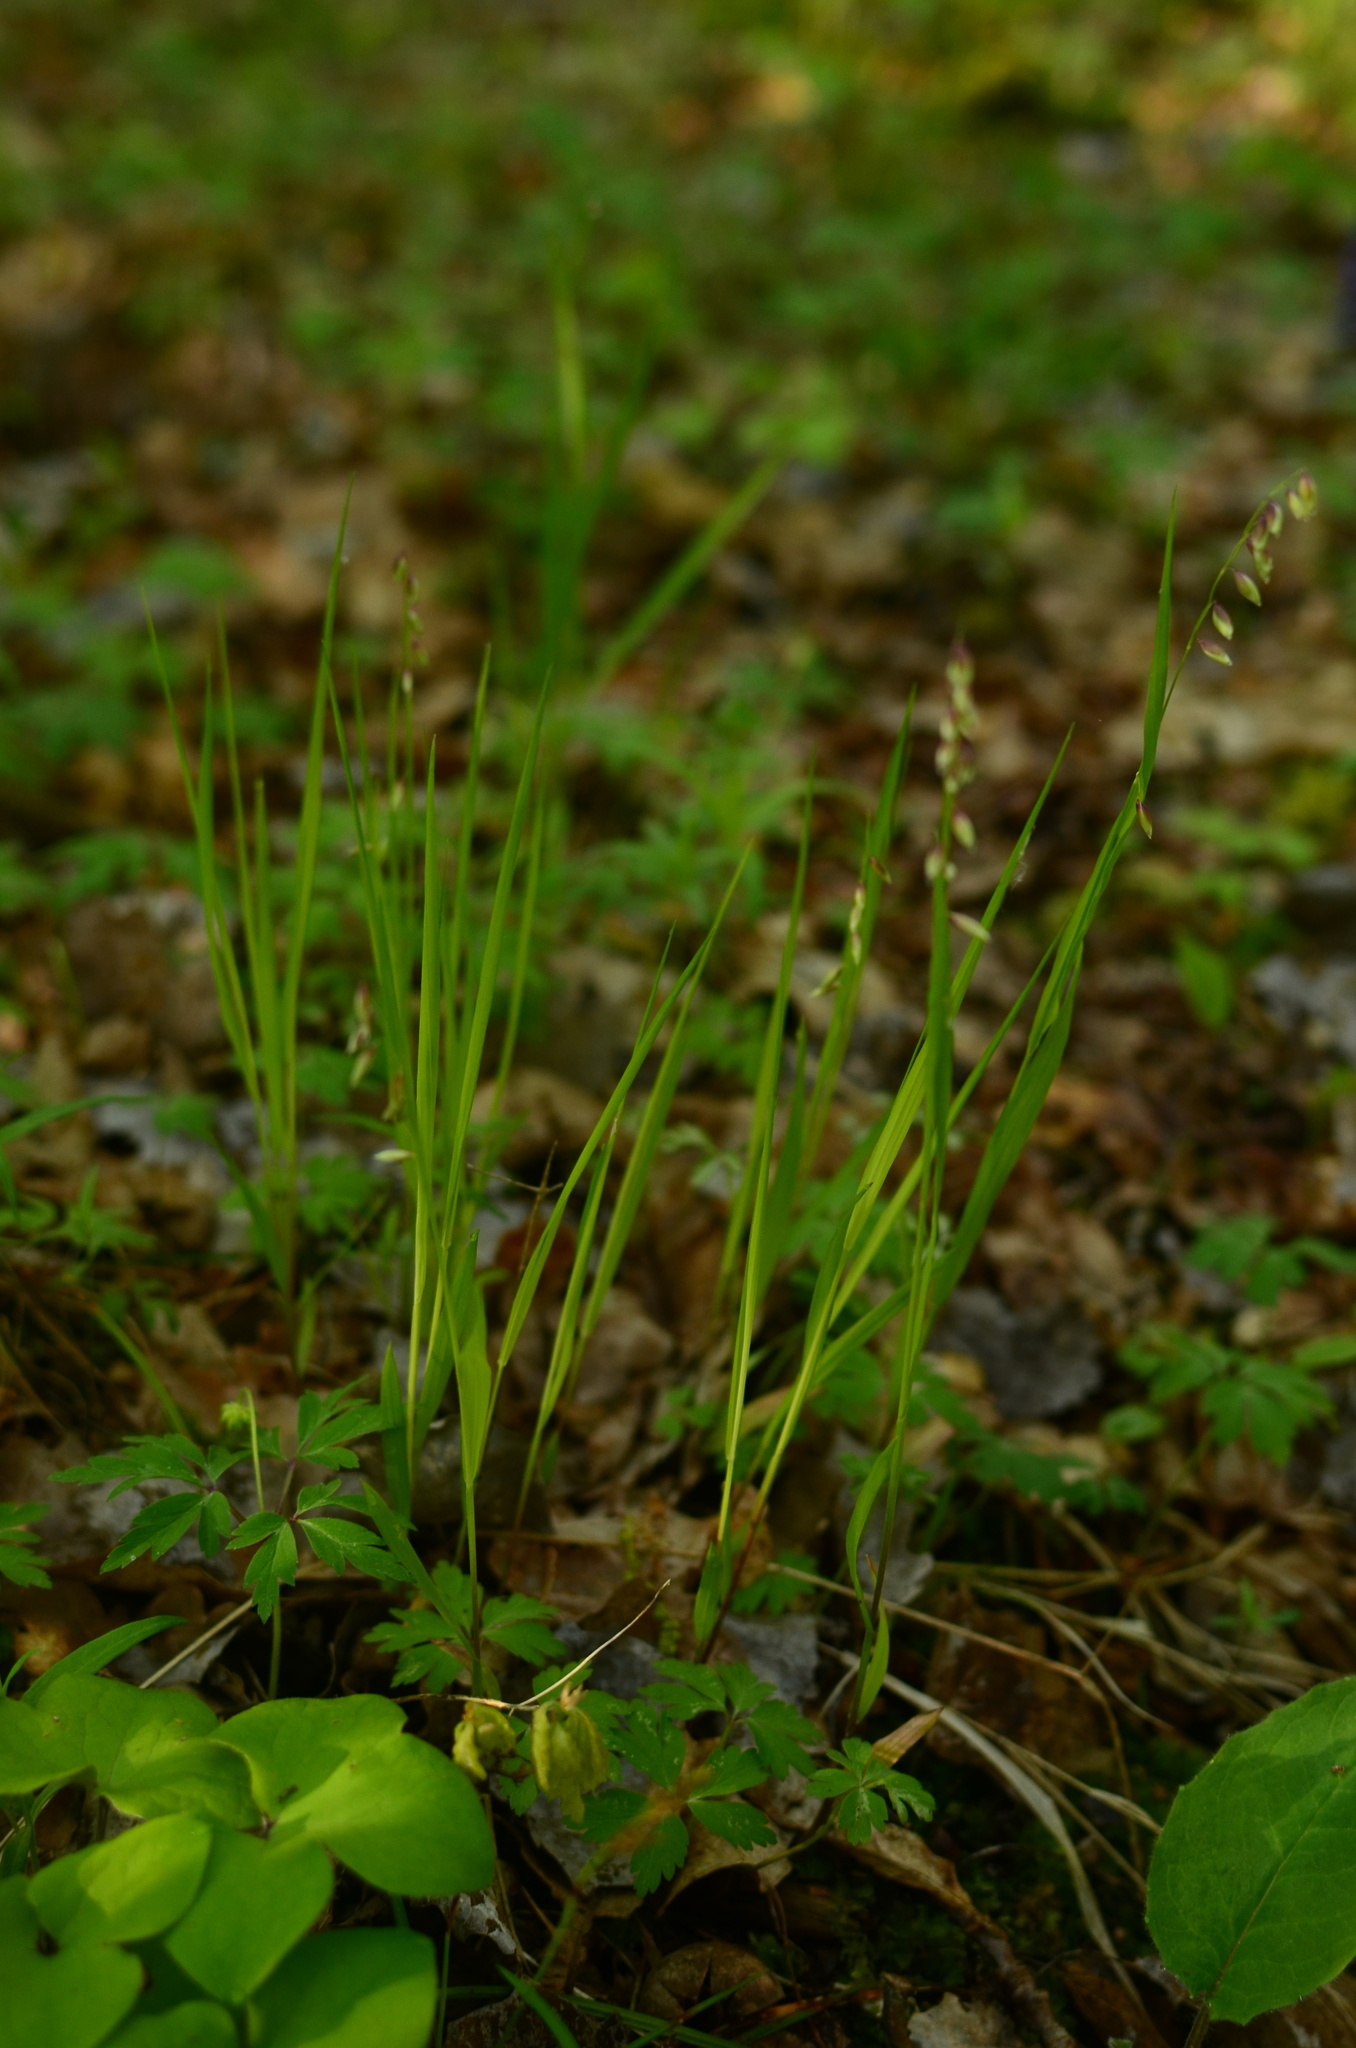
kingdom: Plantae
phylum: Tracheophyta
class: Liliopsida
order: Poales
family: Poaceae
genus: Melica
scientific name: Melica nutans
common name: Mountain melick
